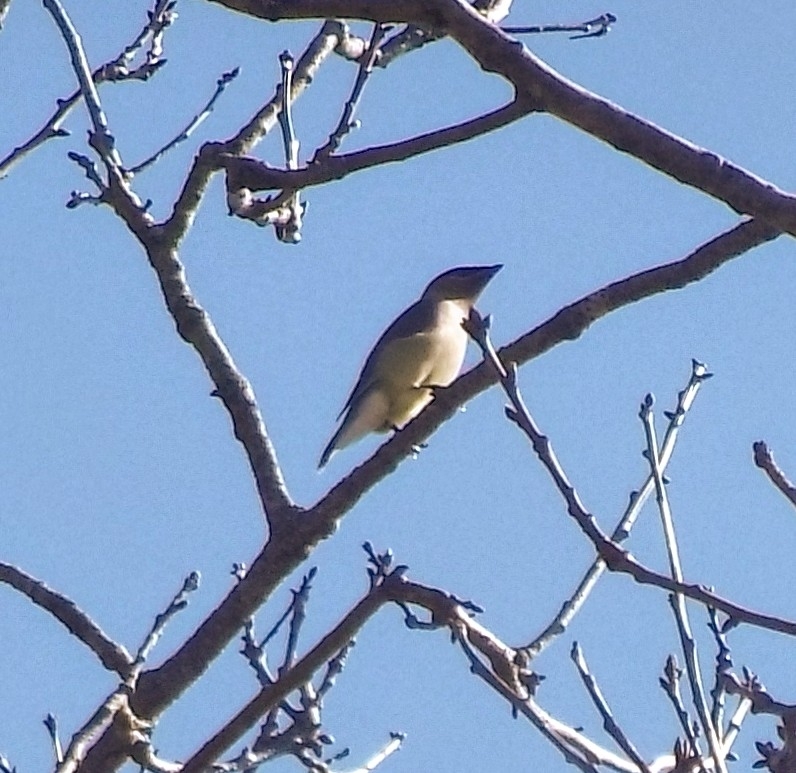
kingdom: Animalia
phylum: Chordata
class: Aves
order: Passeriformes
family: Bombycillidae
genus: Bombycilla
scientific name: Bombycilla cedrorum
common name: Cedar waxwing
